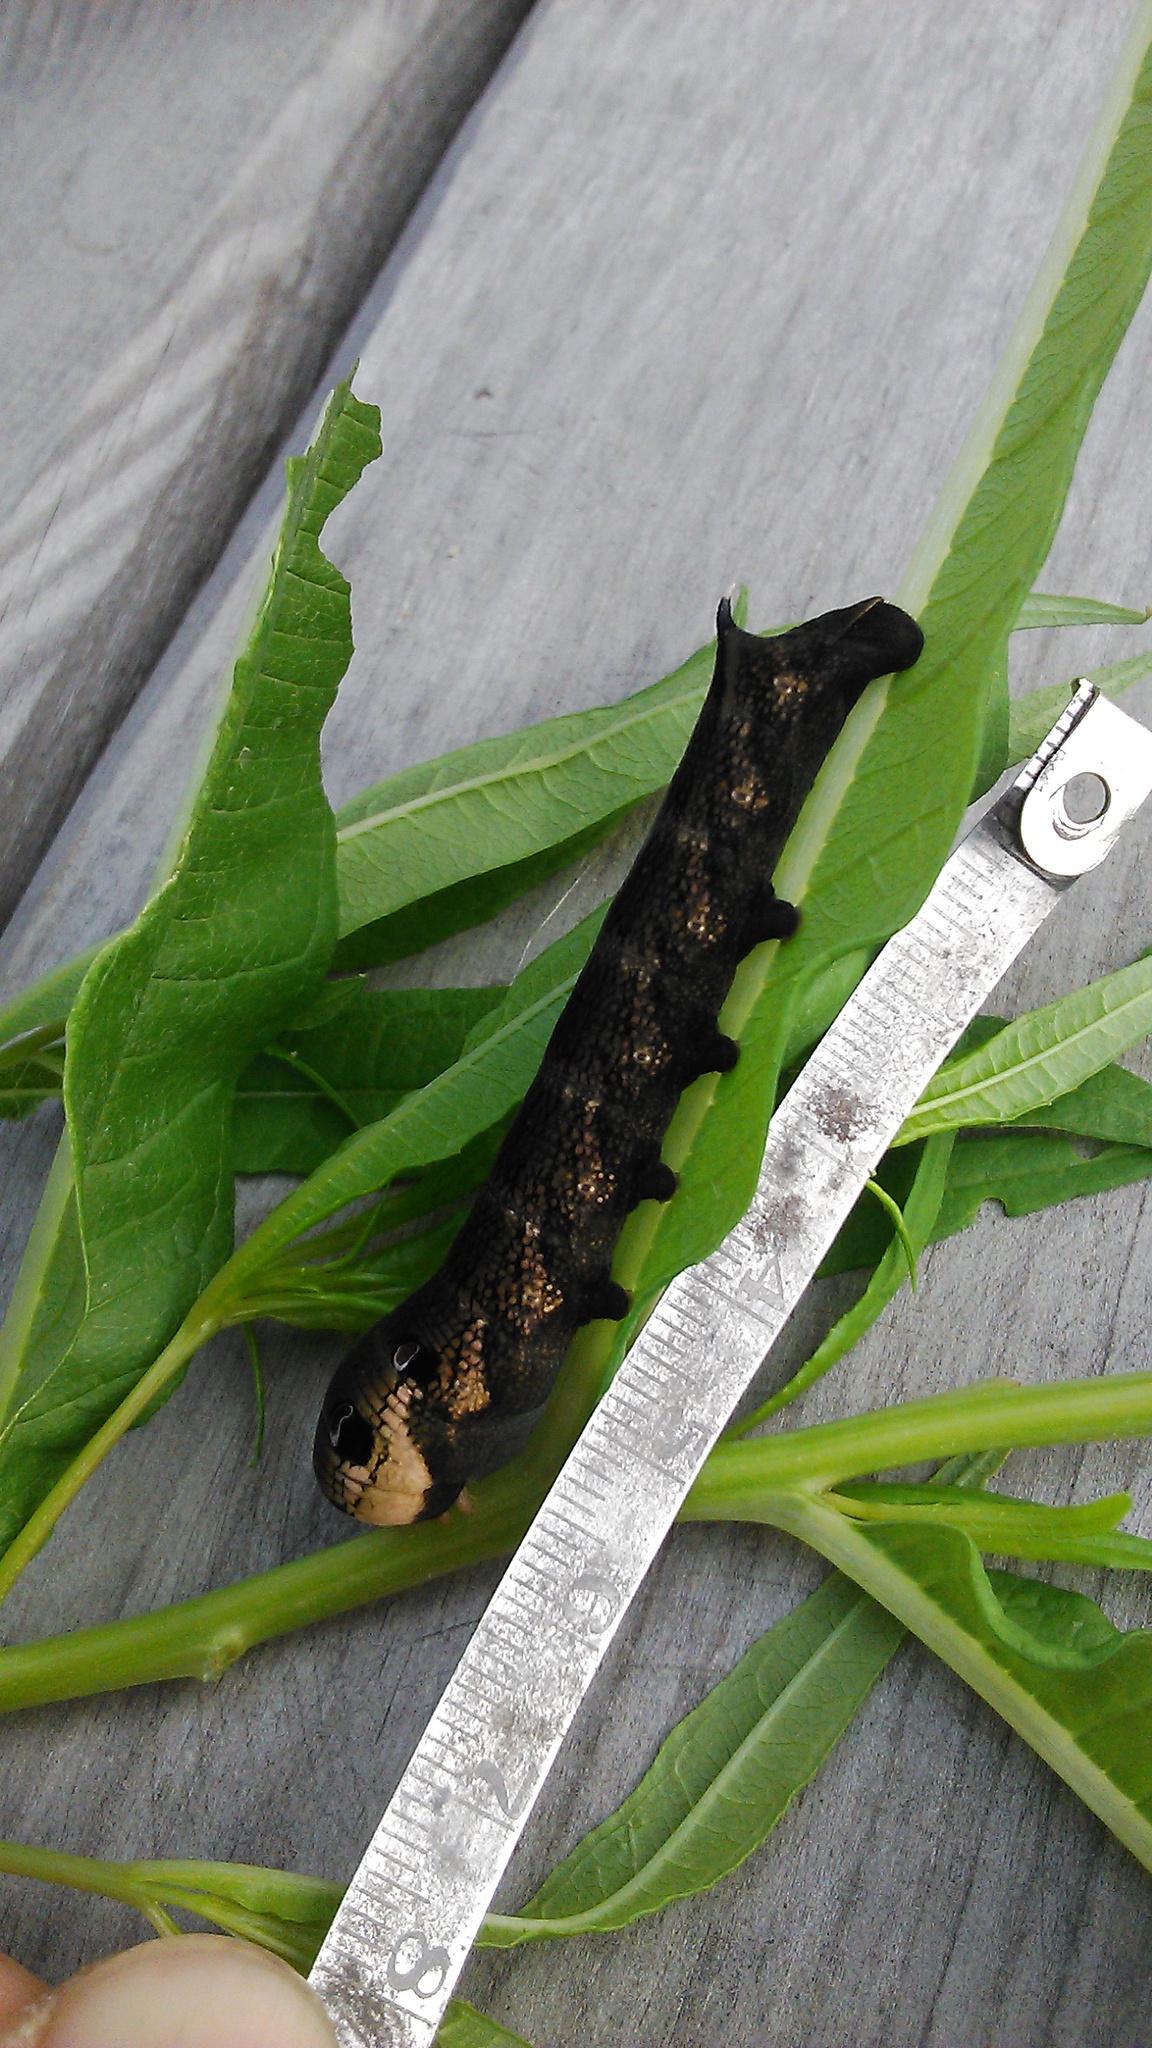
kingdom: Animalia
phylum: Arthropoda
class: Insecta
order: Lepidoptera
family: Sphingidae
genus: Deilephila
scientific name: Deilephila elpenor
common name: Elephant hawk-moth
